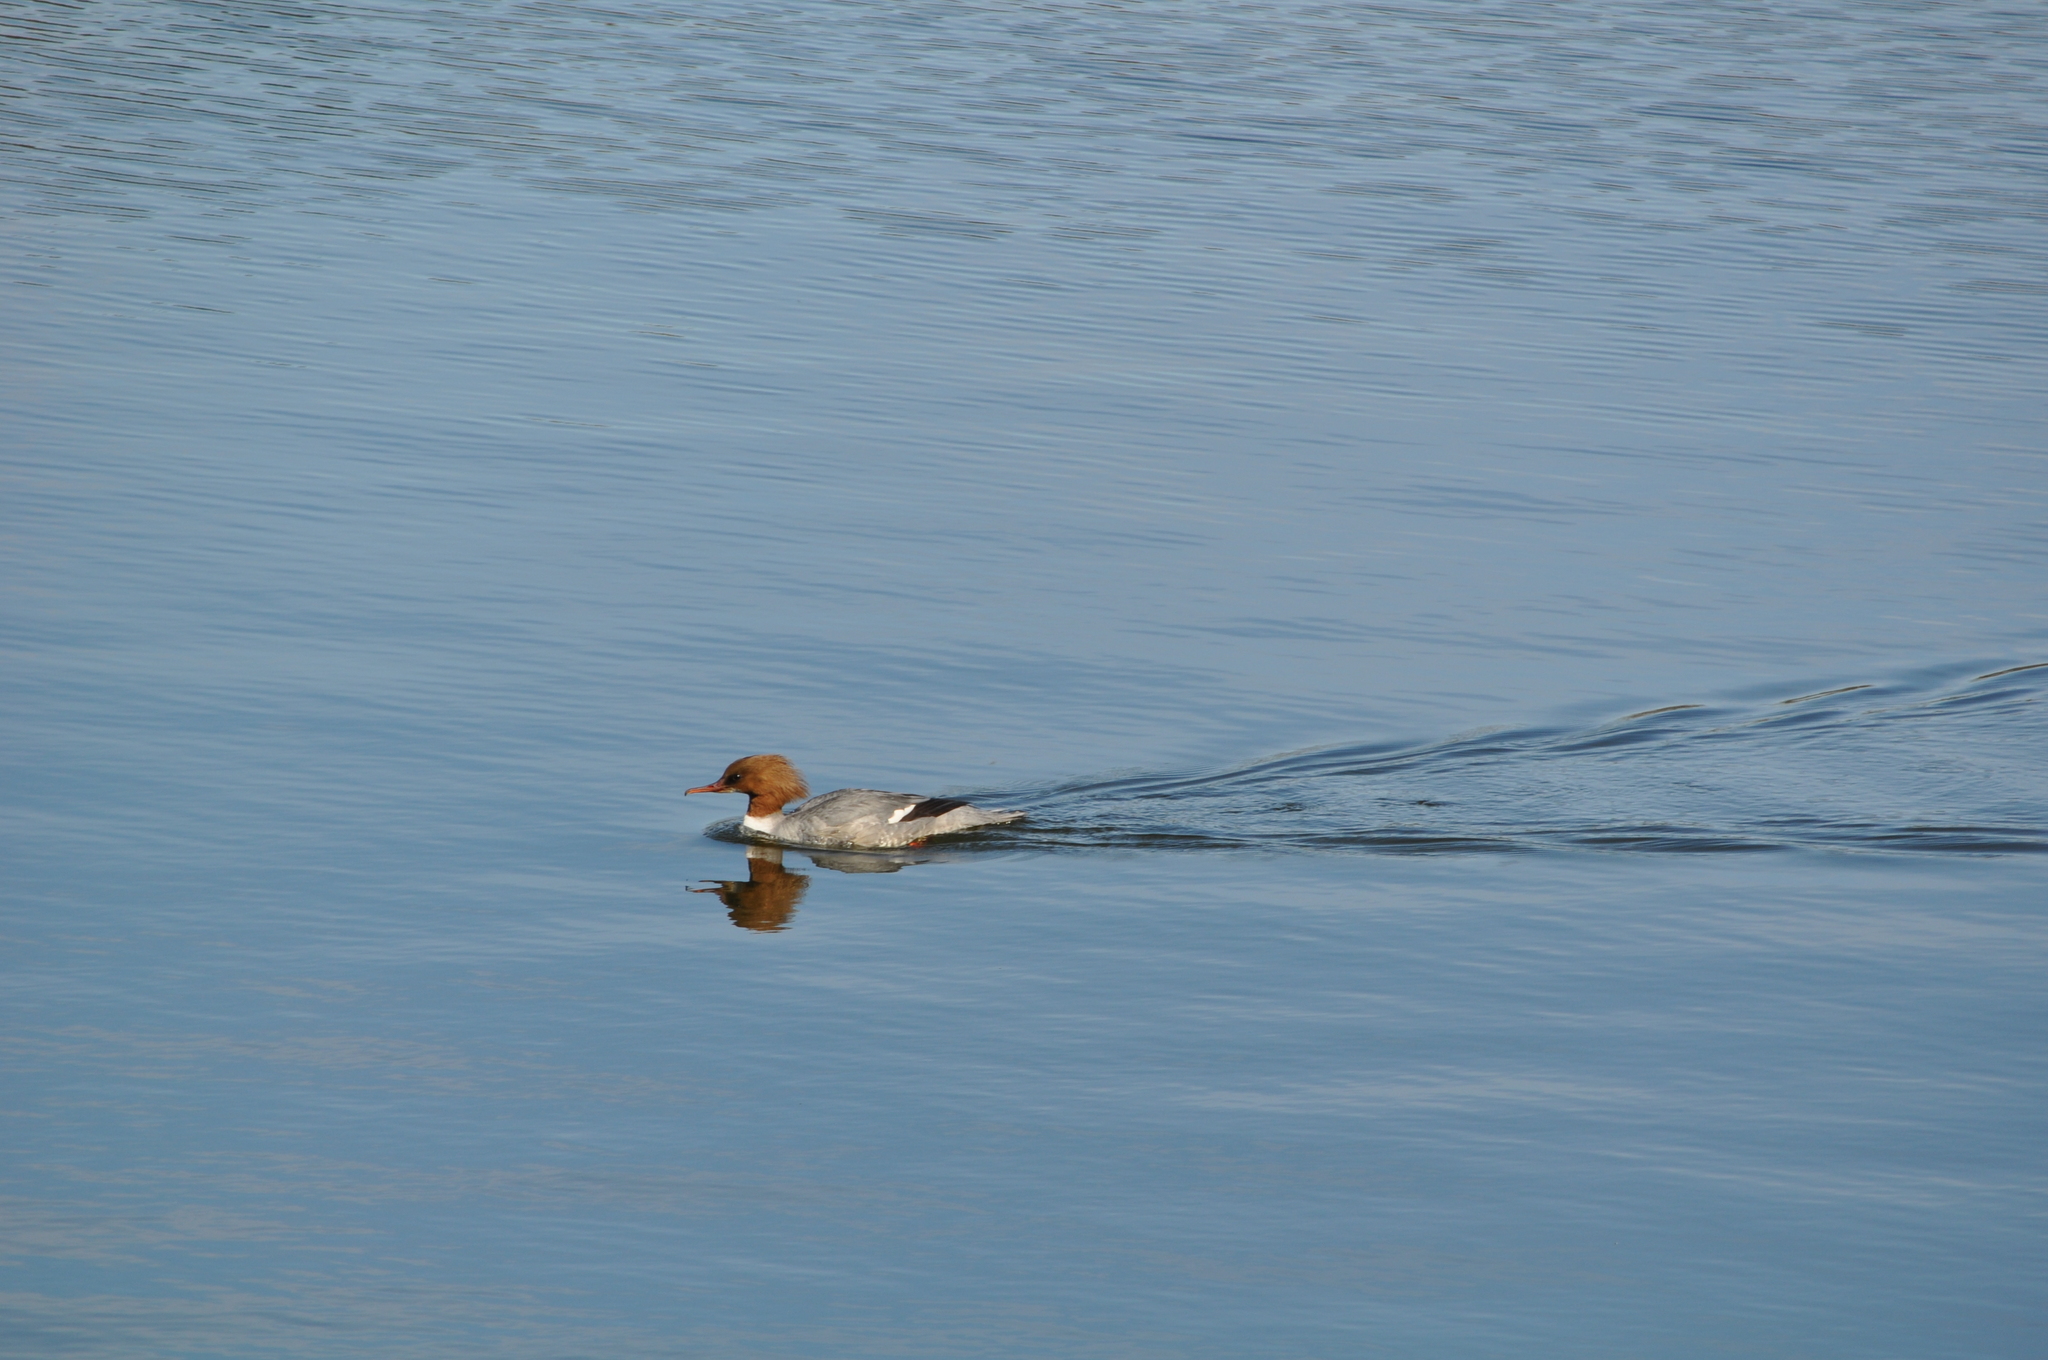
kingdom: Animalia
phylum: Chordata
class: Aves
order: Anseriformes
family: Anatidae
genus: Mergus
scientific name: Mergus merganser
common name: Common merganser
